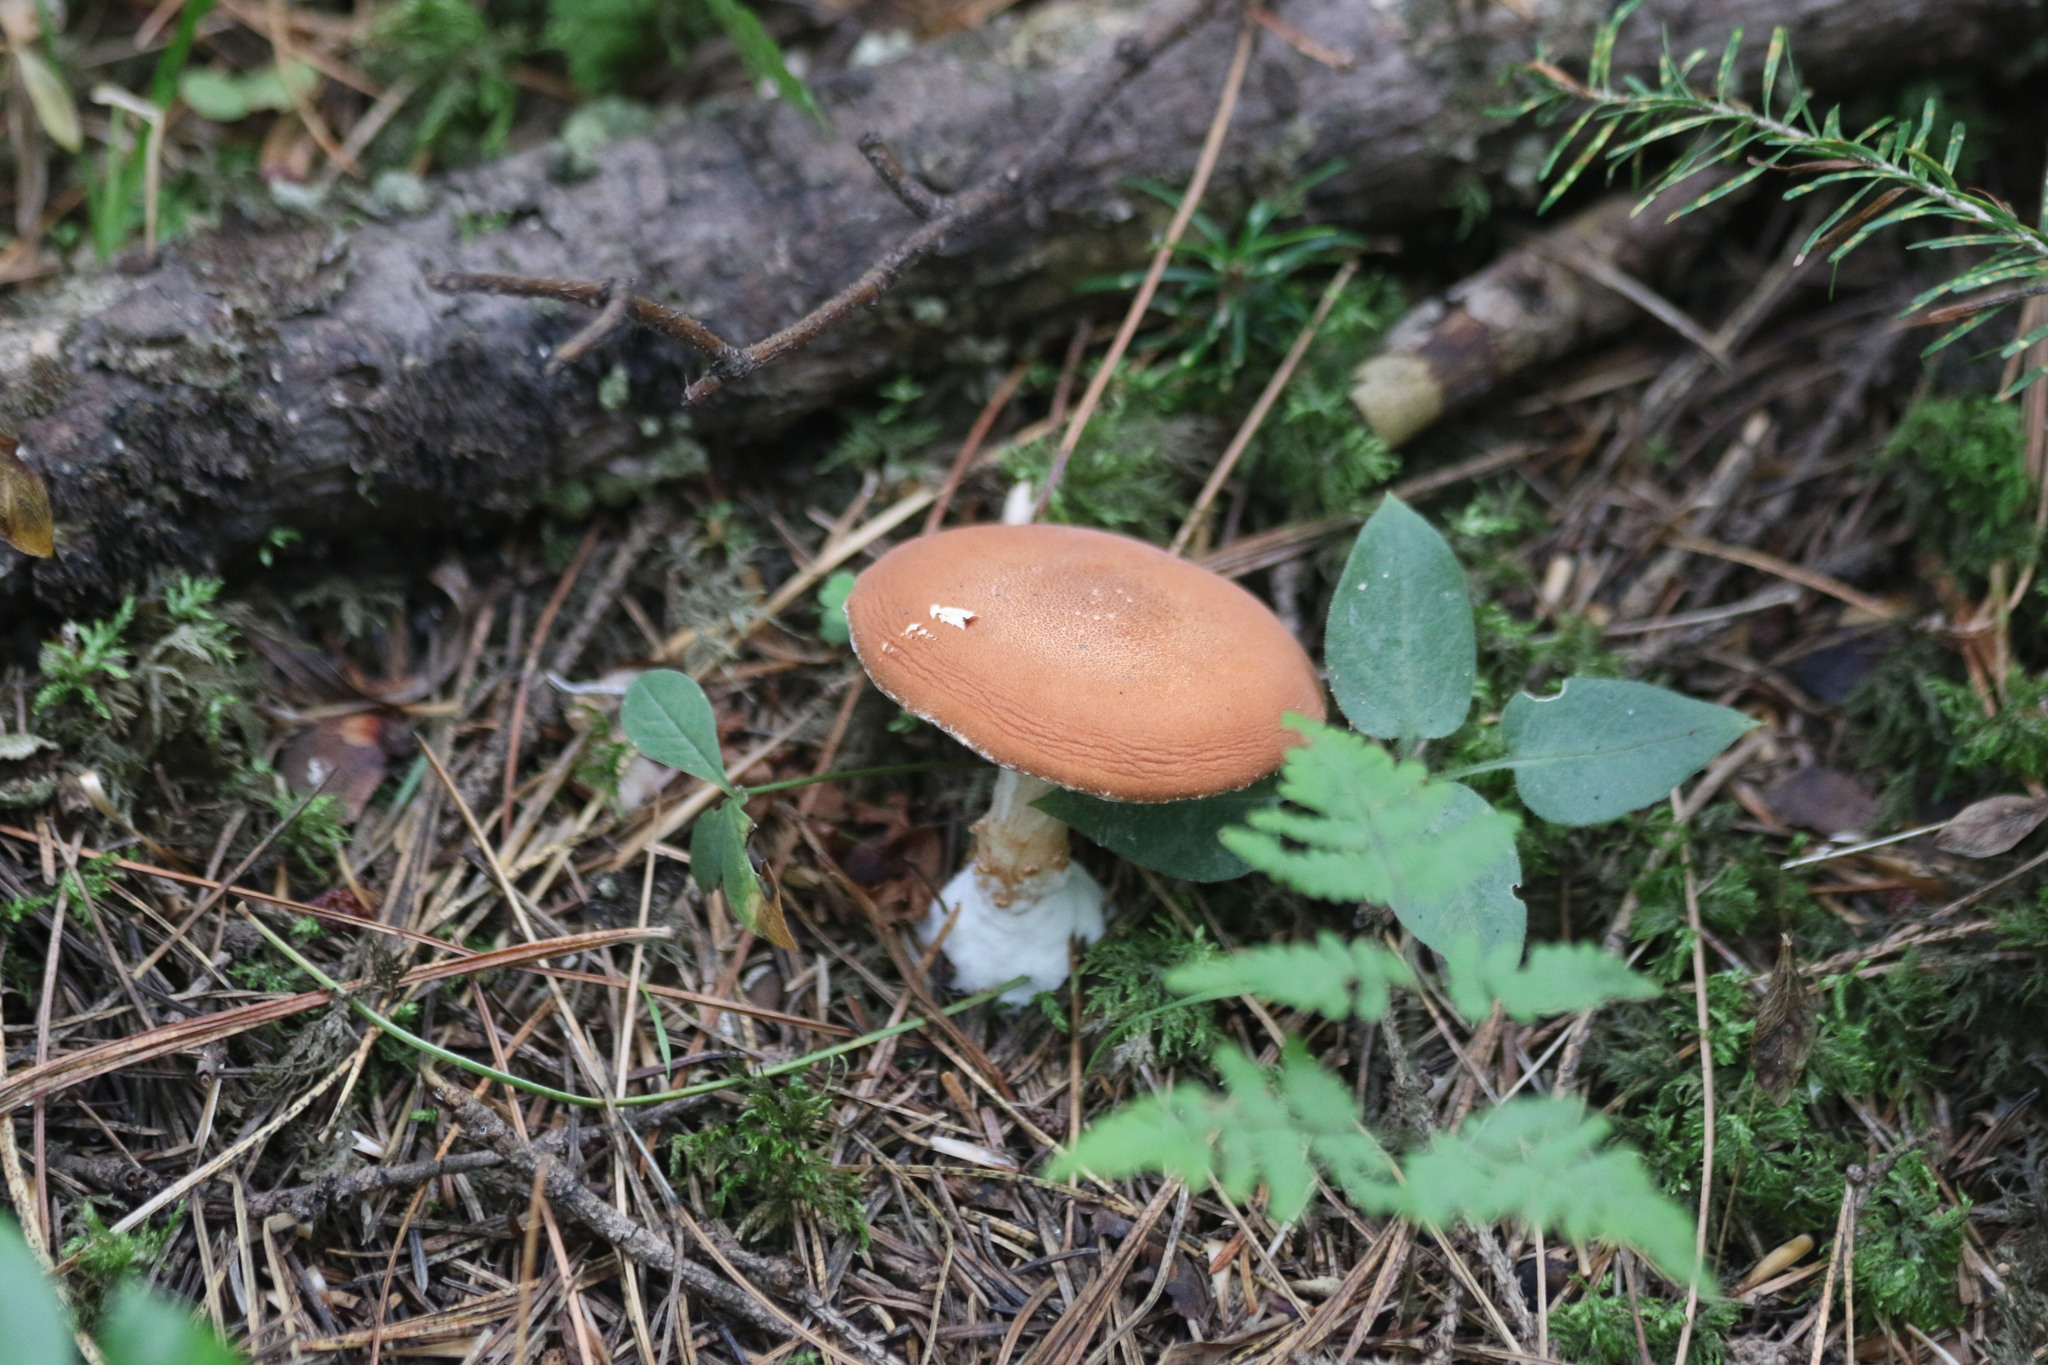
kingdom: Fungi
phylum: Basidiomycota
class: Agaricomycetes
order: Agaricales
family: Agaricaceae
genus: Cystodermella
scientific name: Cystodermella cinnabarina
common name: Cinnabar powdercap
